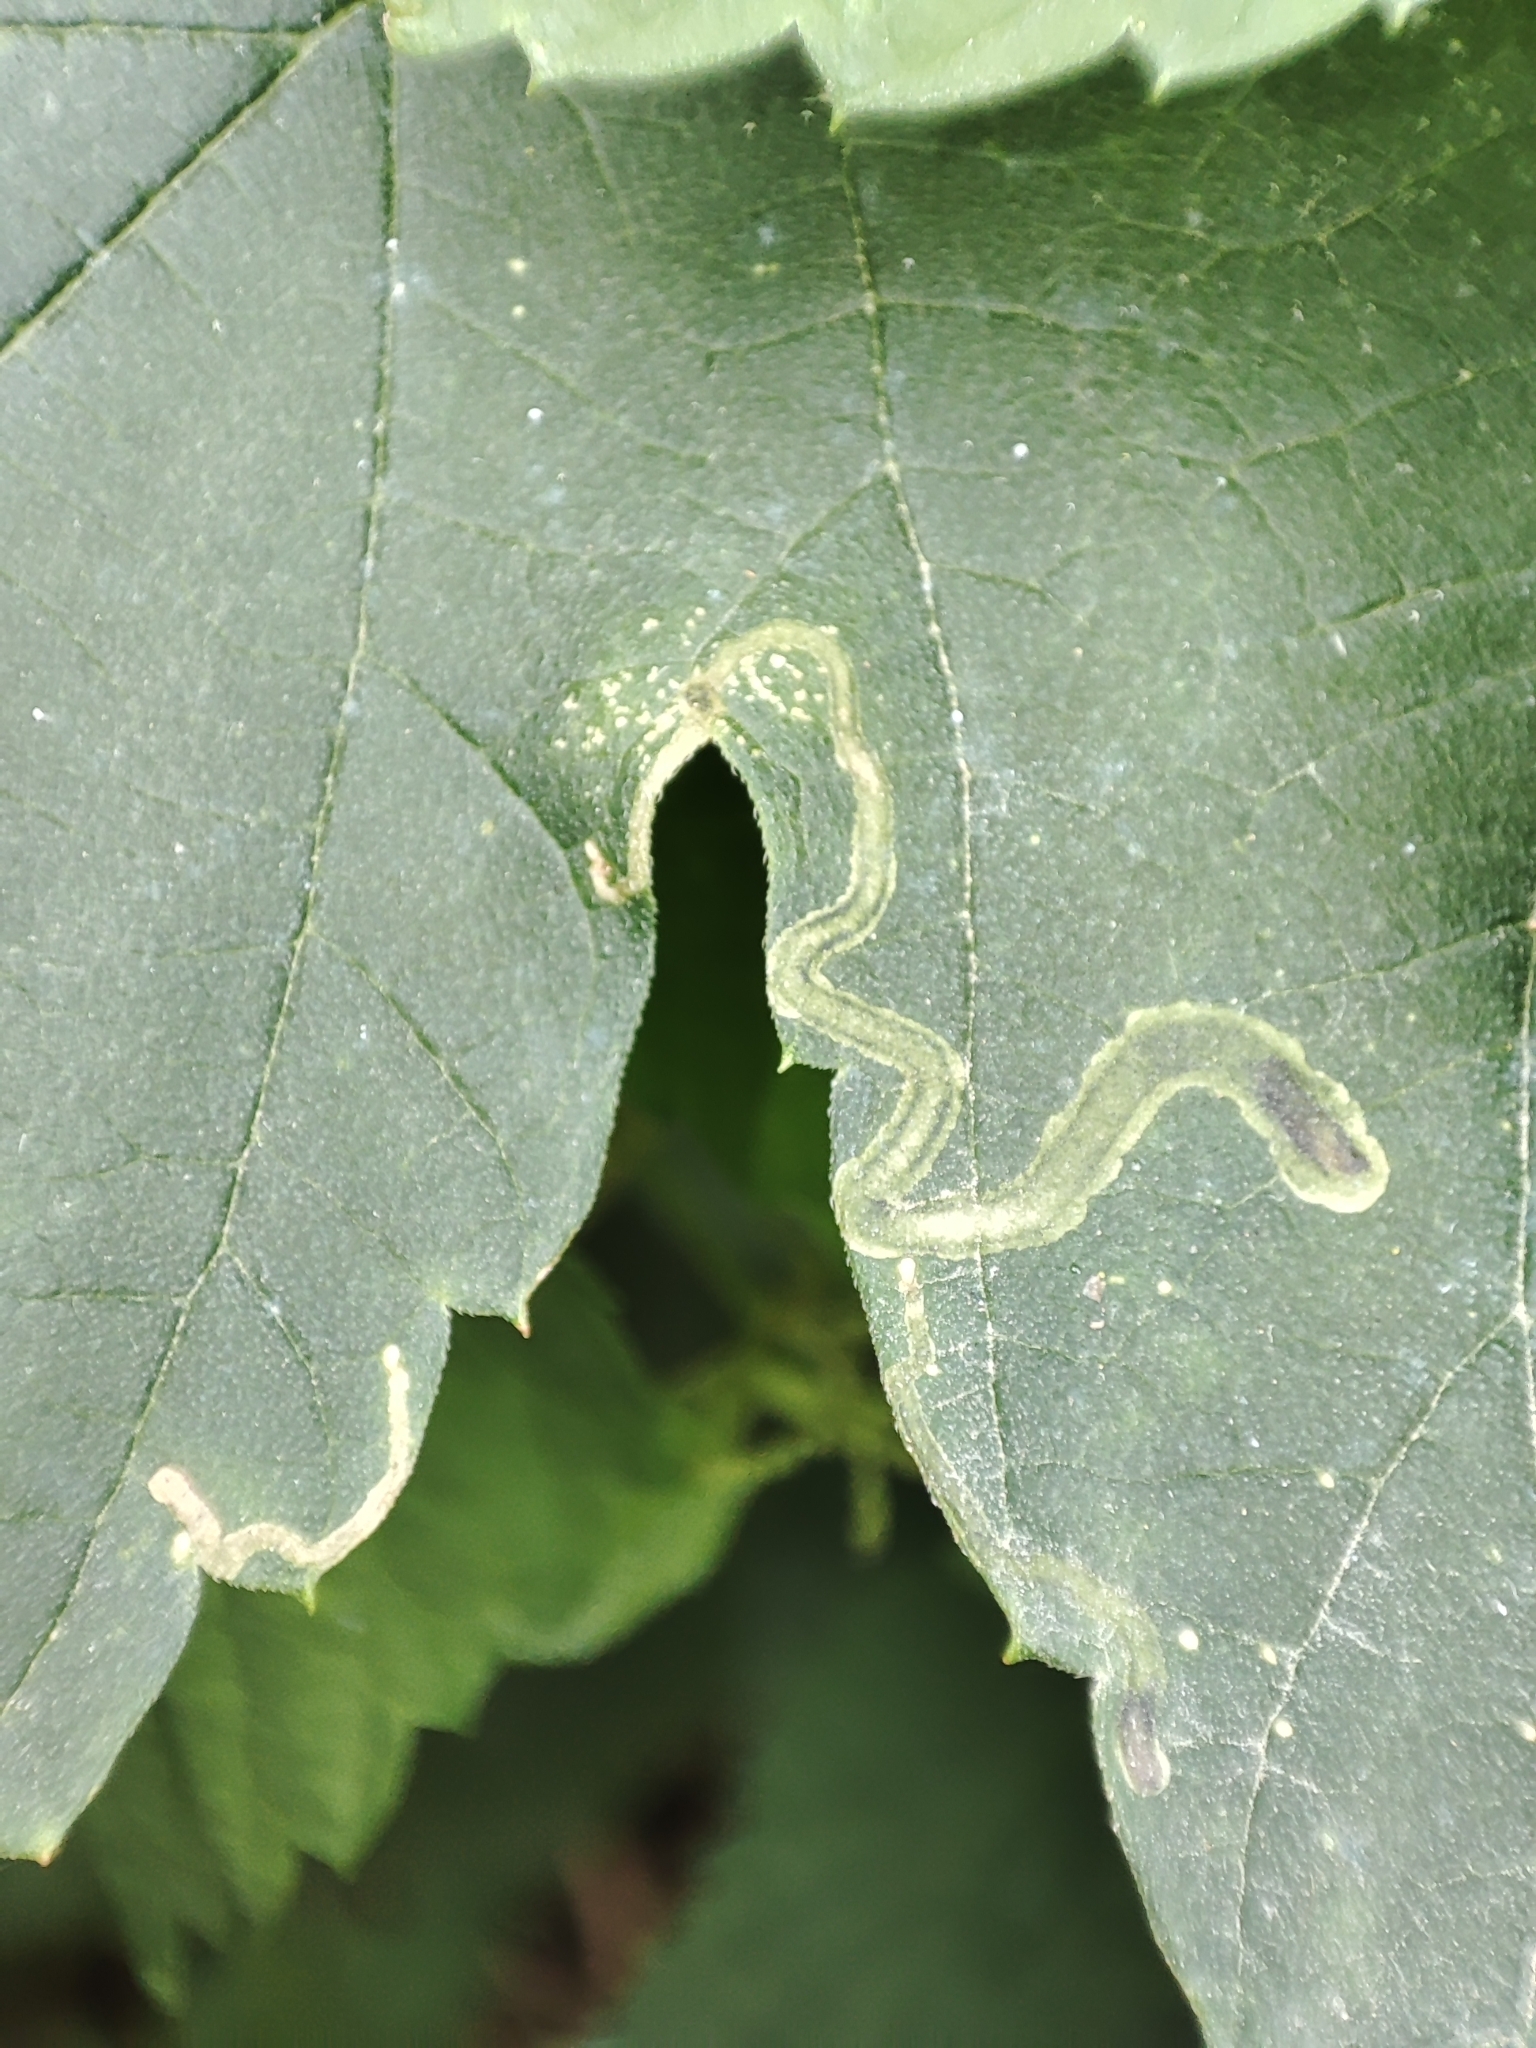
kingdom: Plantae
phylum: Tracheophyta
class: Magnoliopsida
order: Rosales
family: Cannabaceae
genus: Humulus
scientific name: Humulus lupulus
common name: Hop
